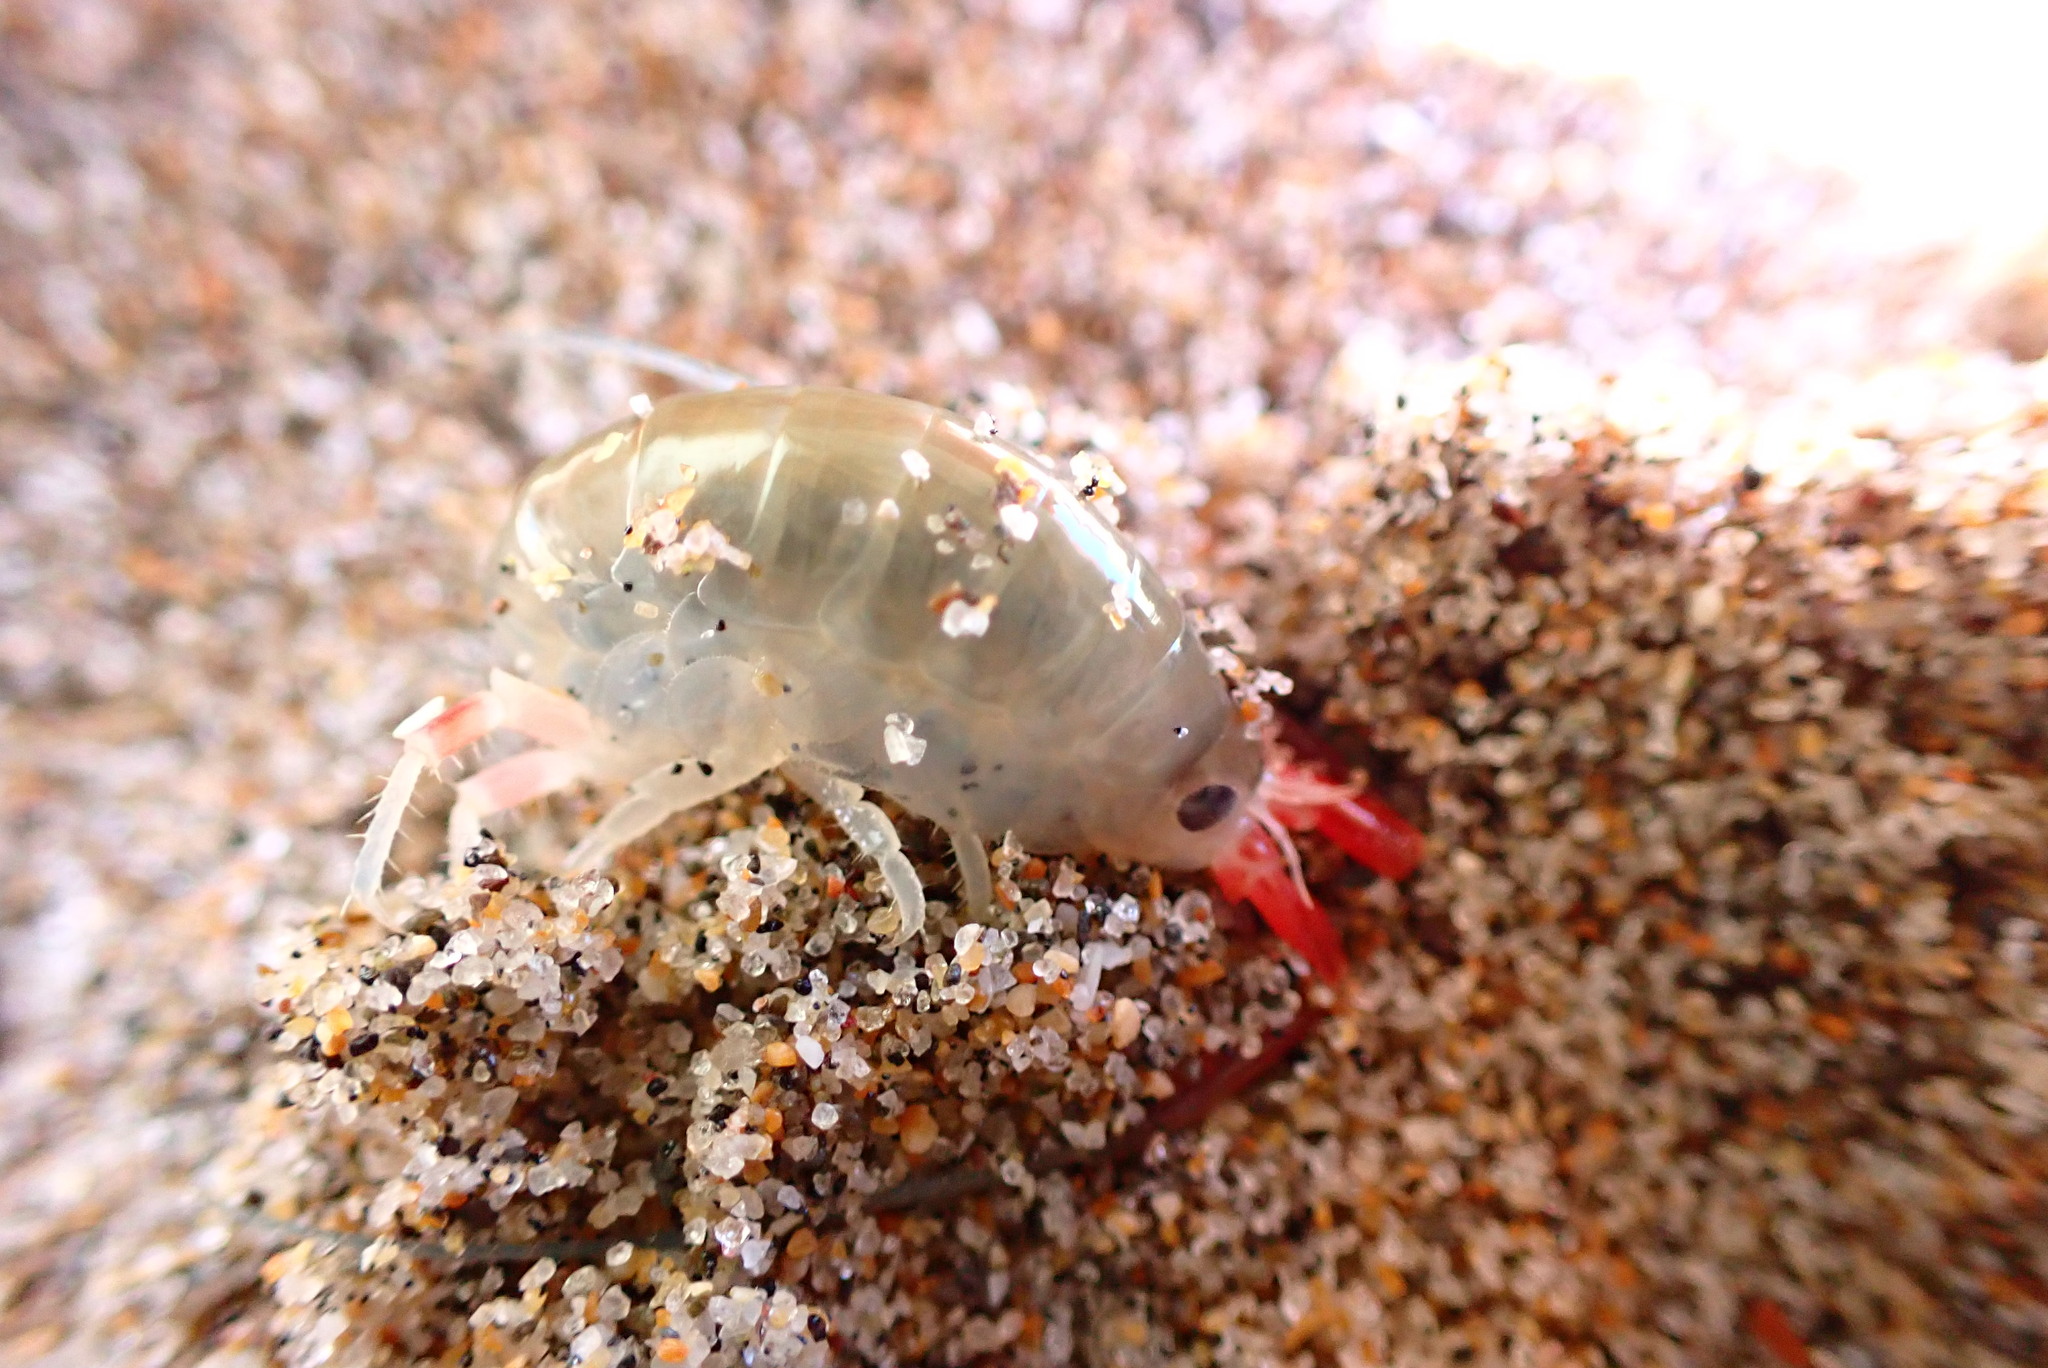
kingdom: Animalia
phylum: Arthropoda
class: Malacostraca
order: Amphipoda
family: Talitridae
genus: Megalorchestia
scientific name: Megalorchestia californiana
